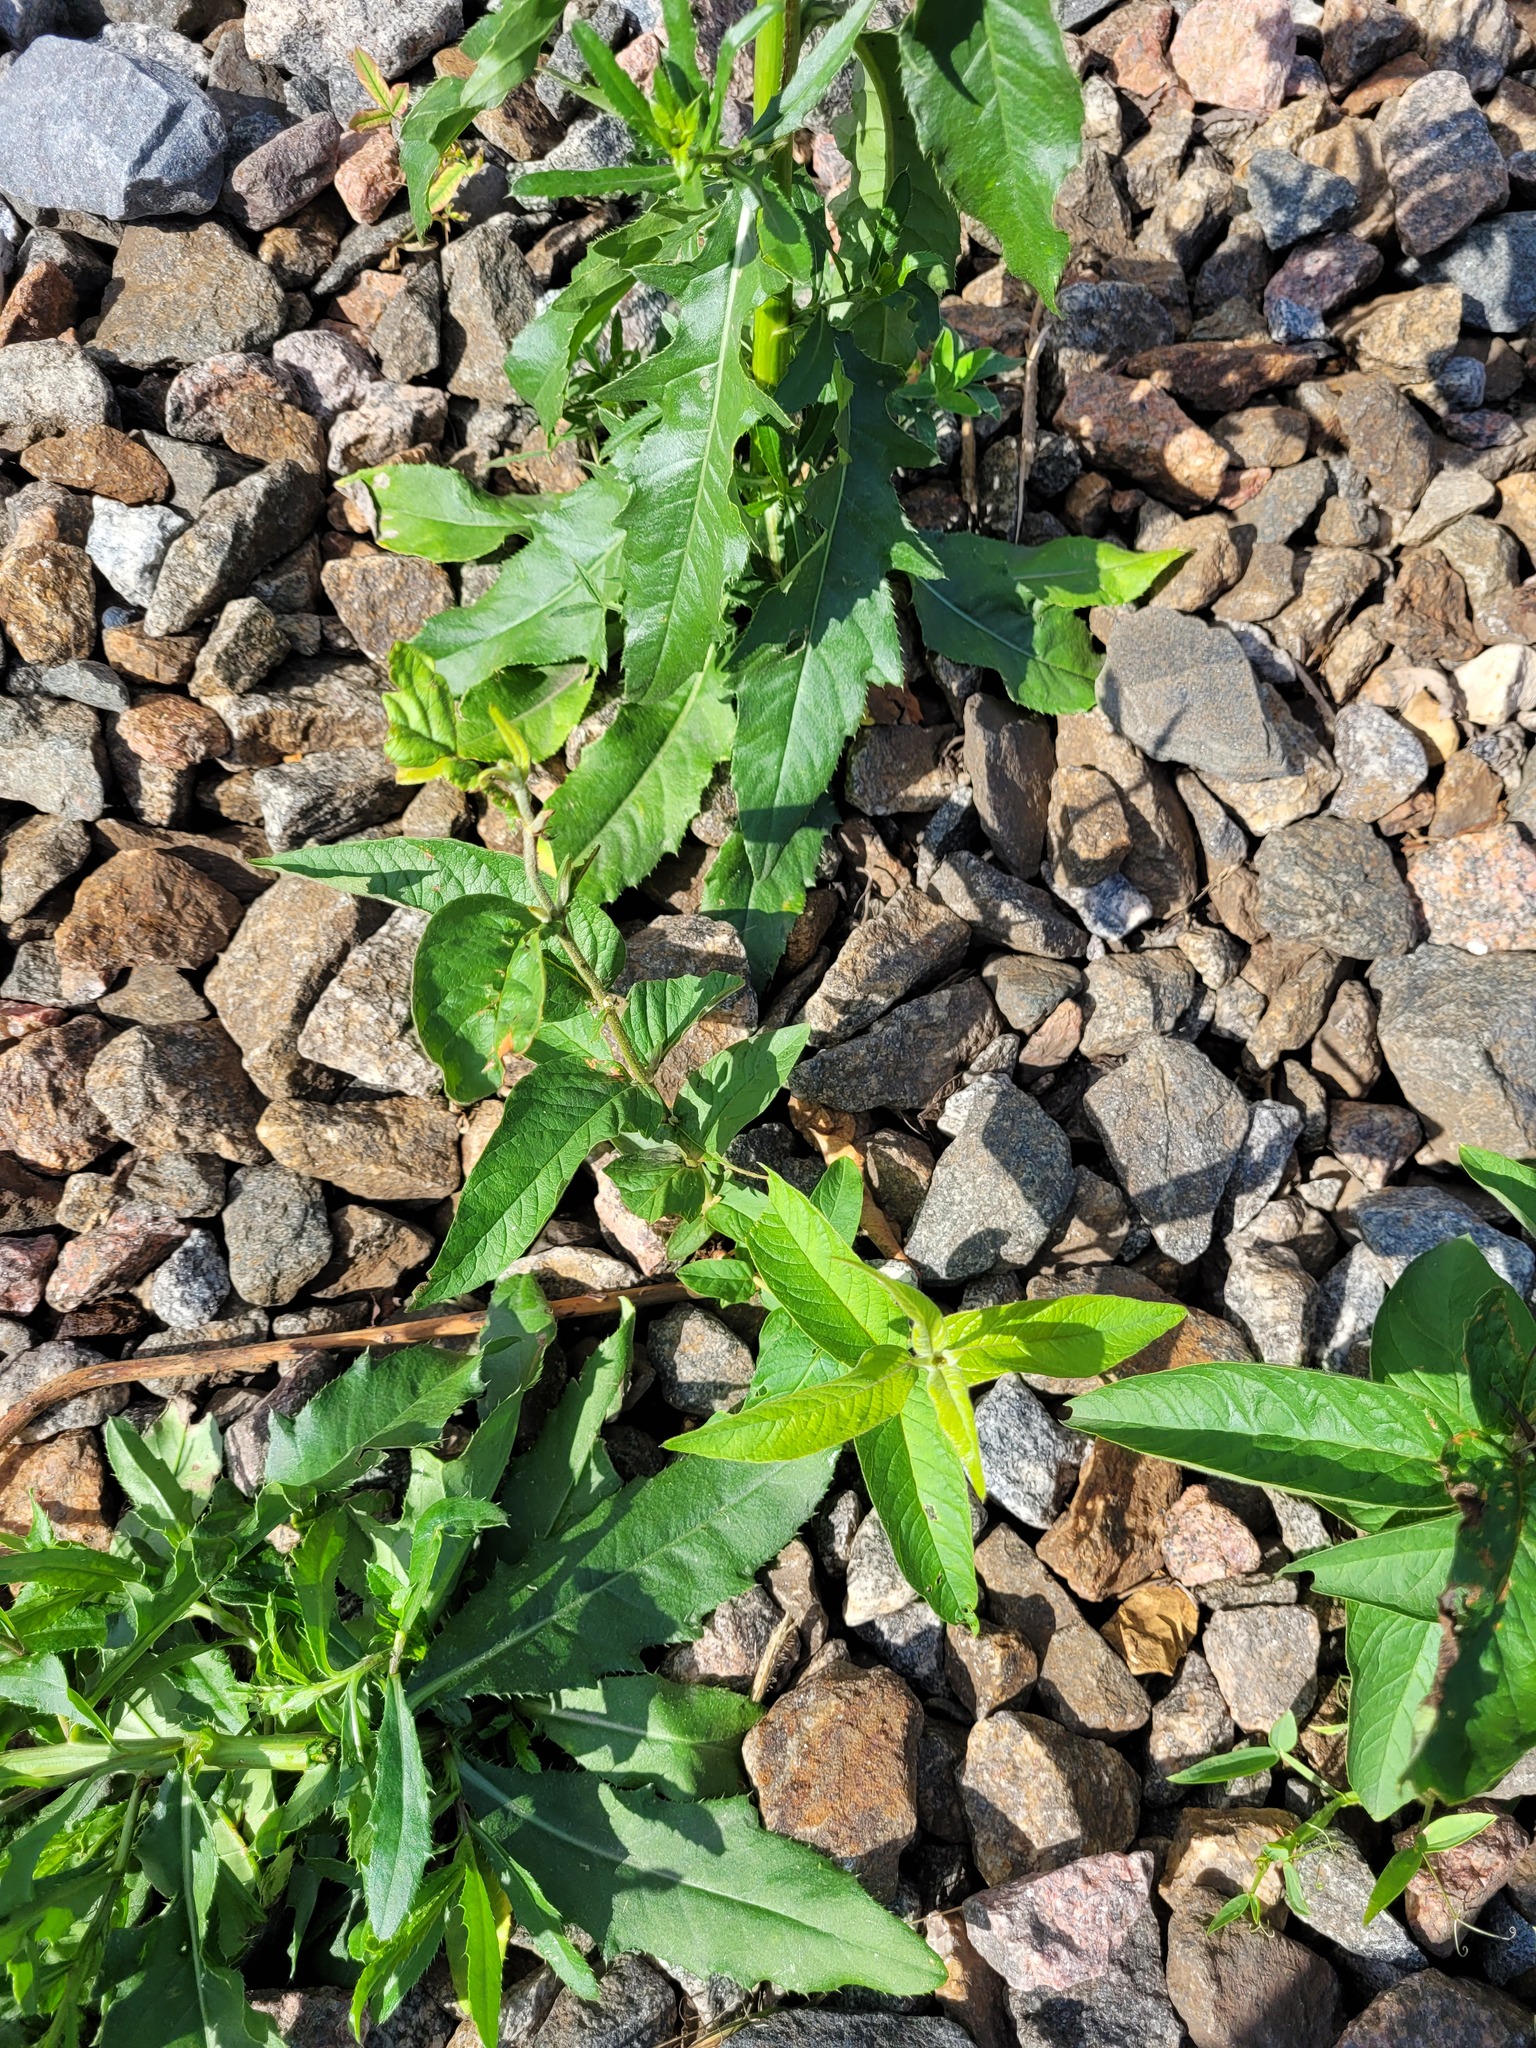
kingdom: Plantae
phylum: Tracheophyta
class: Magnoliopsida
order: Ericales
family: Primulaceae
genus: Lysimachia
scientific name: Lysimachia vulgaris
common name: Yellow loosestrife
